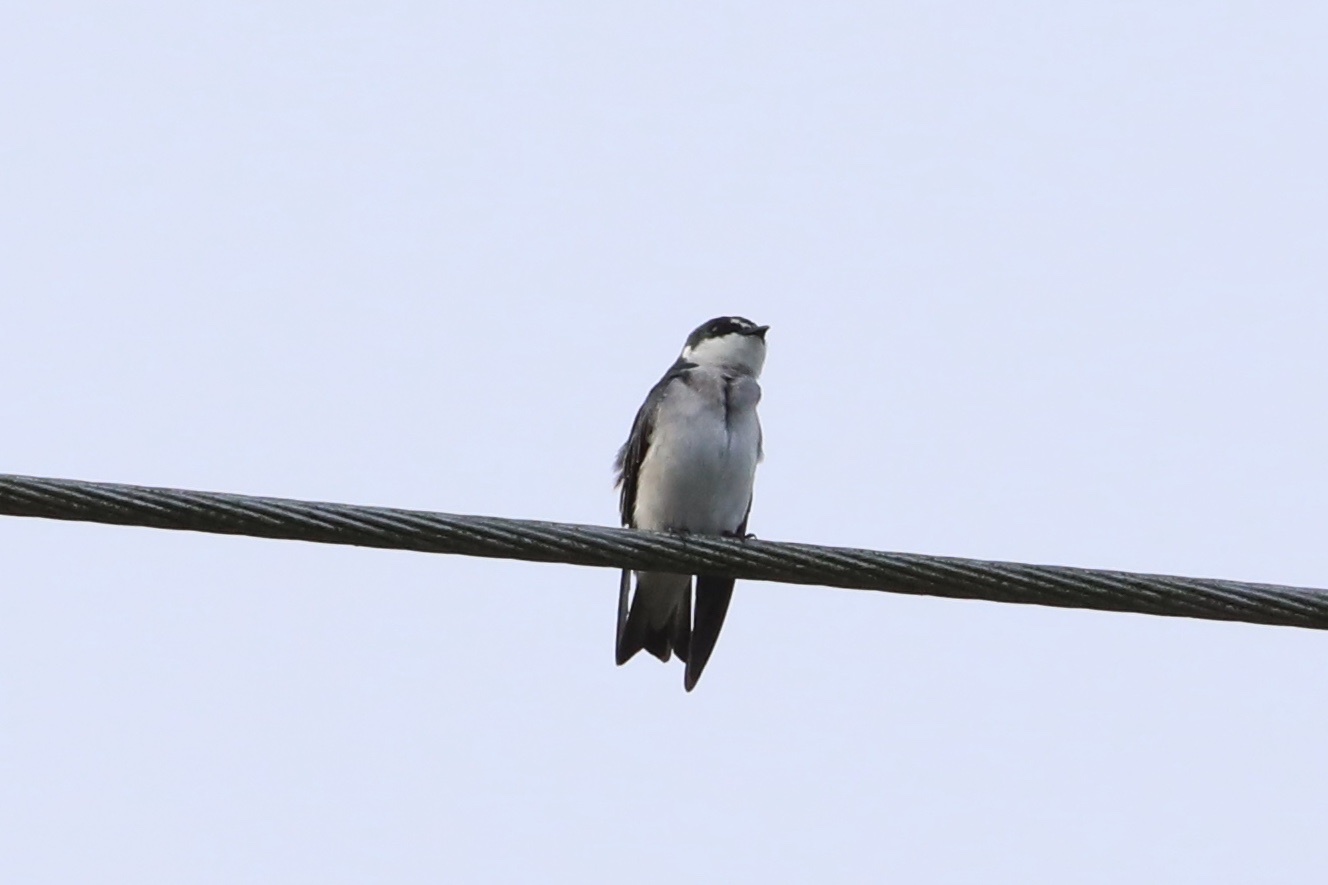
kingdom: Animalia
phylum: Chordata
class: Aves
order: Passeriformes
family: Hirundinidae
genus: Tachycineta
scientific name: Tachycineta albilinea
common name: Mangrove swallow
